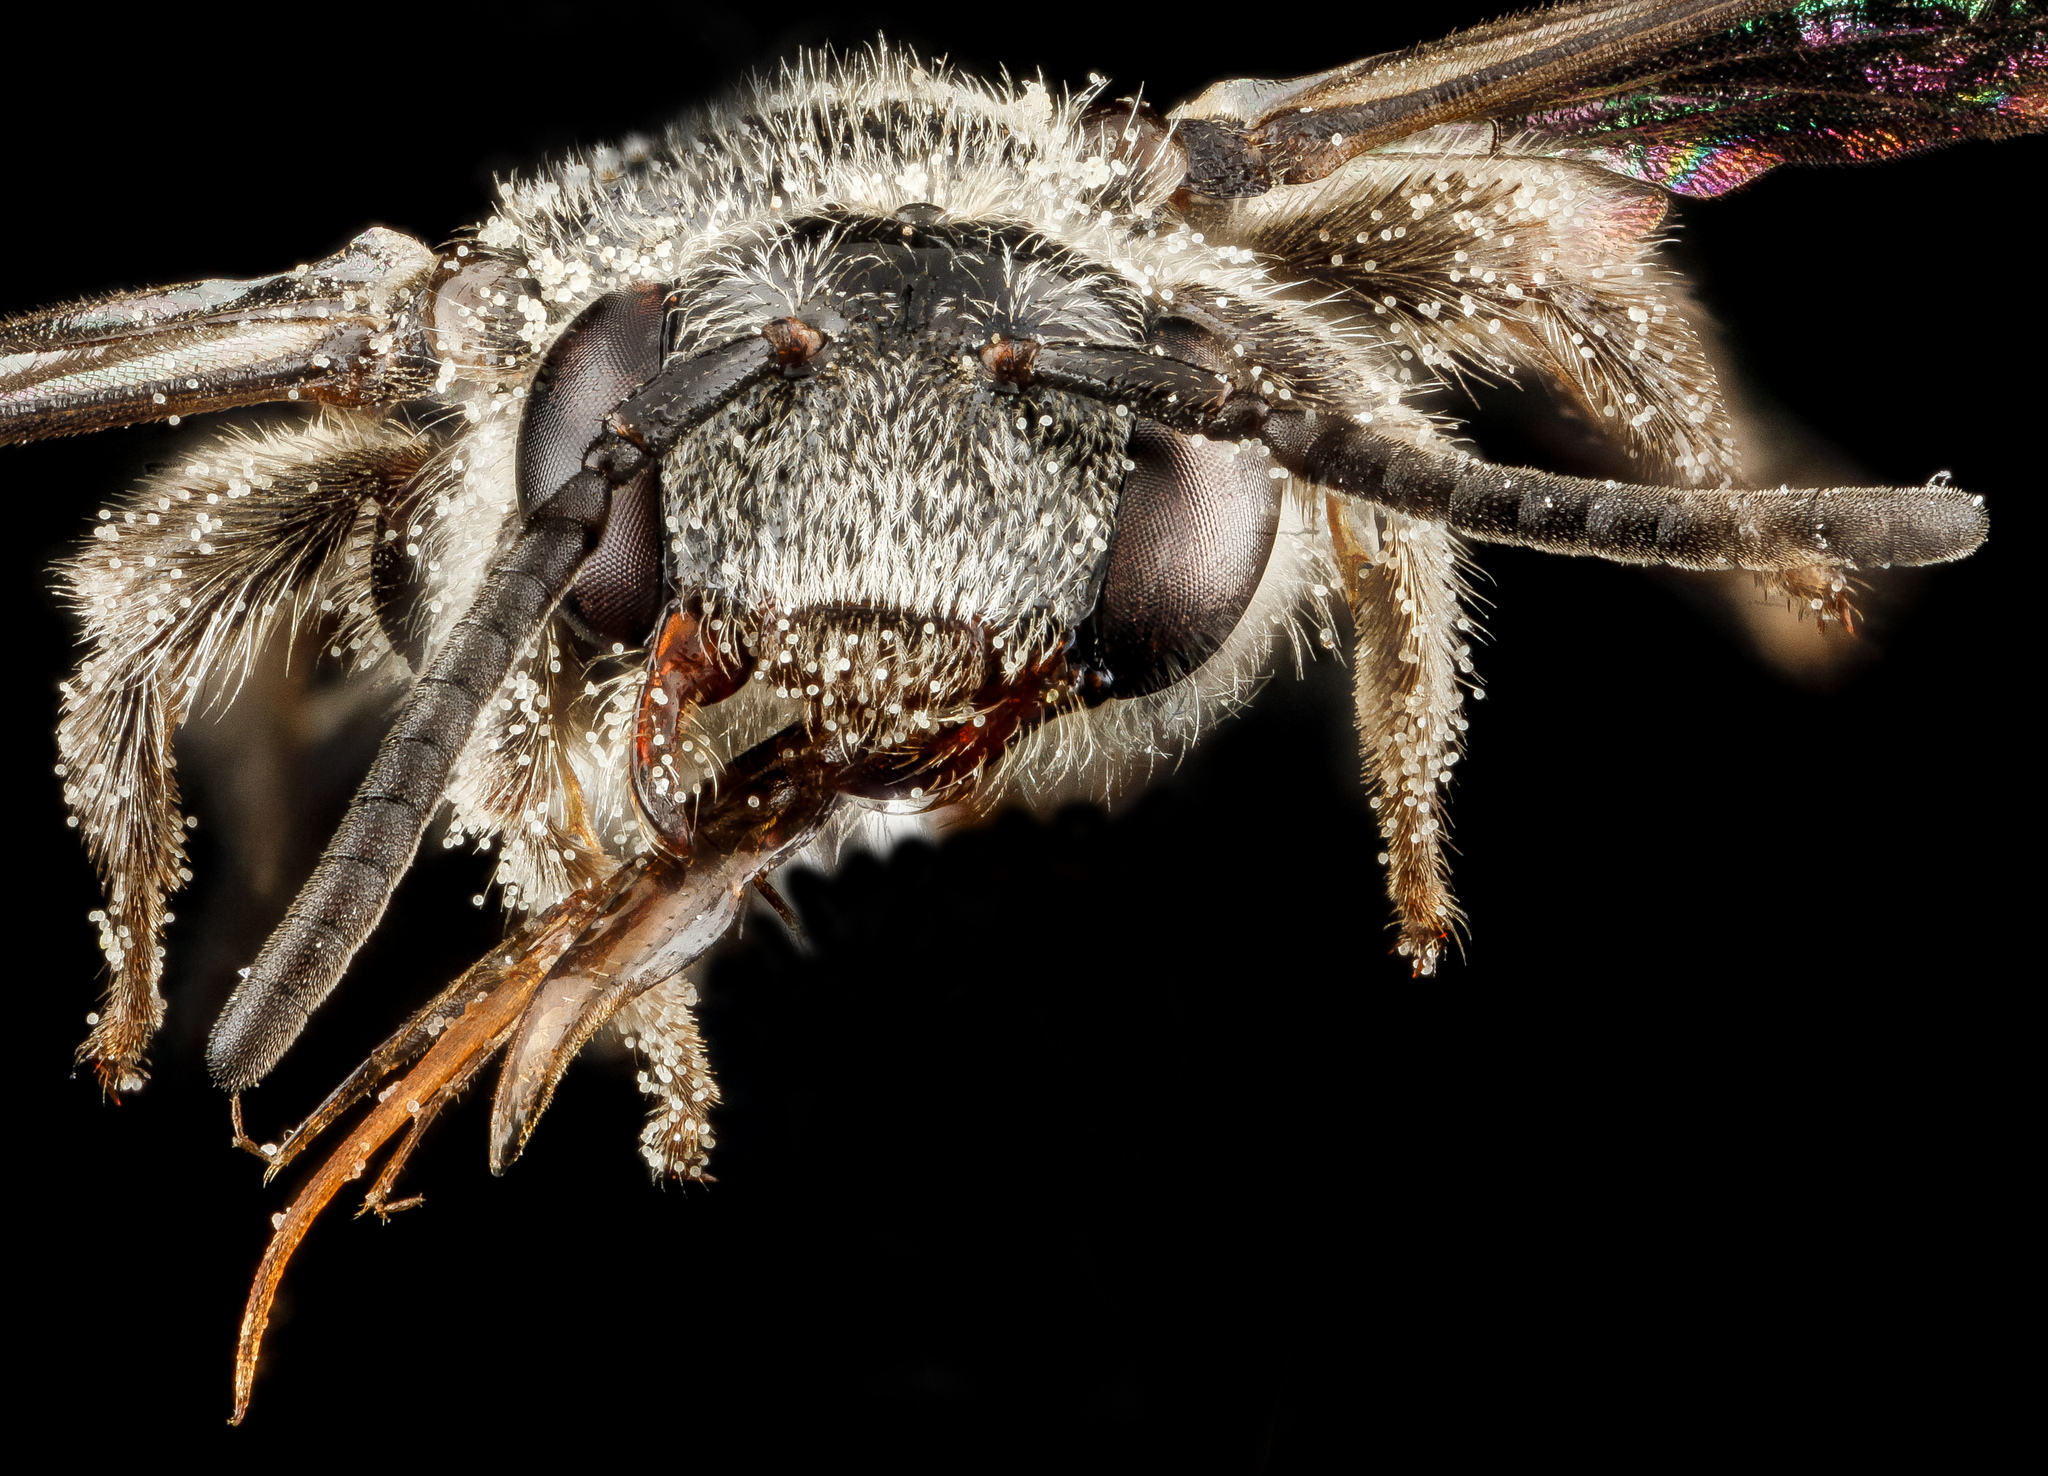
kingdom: Animalia
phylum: Arthropoda
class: Insecta
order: Hymenoptera
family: Apidae
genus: Brachynomada
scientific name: Brachynomada grindeliae
